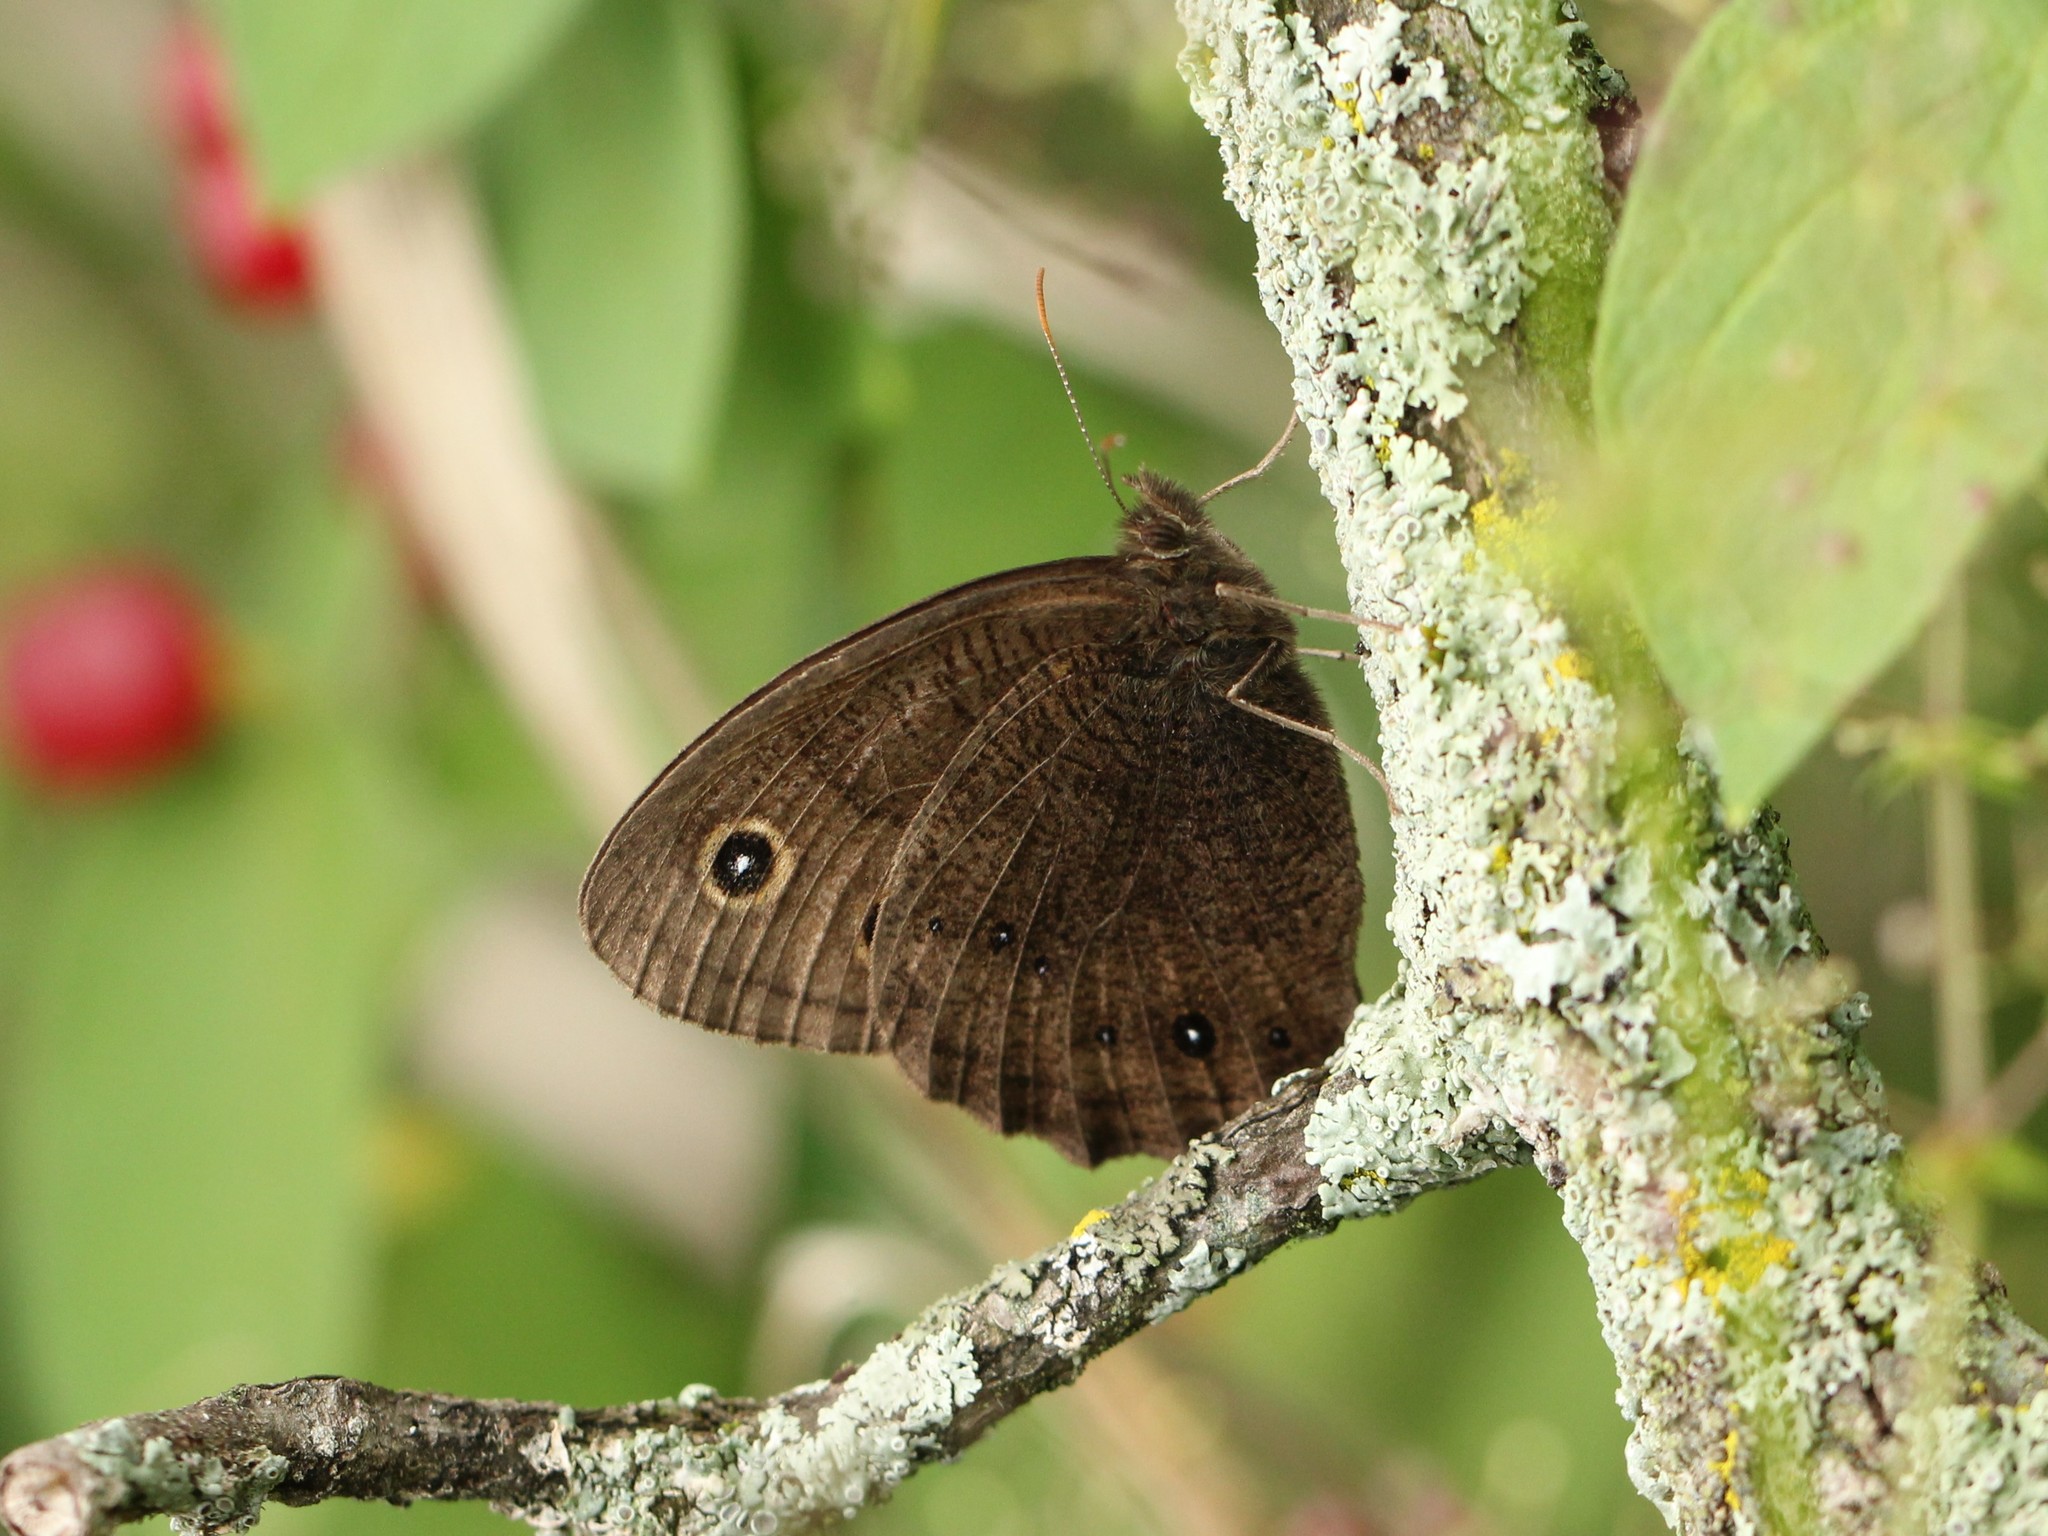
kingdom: Animalia
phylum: Arthropoda
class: Insecta
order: Lepidoptera
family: Nymphalidae
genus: Cercyonis
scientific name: Cercyonis pegala
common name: Common wood-nymph
